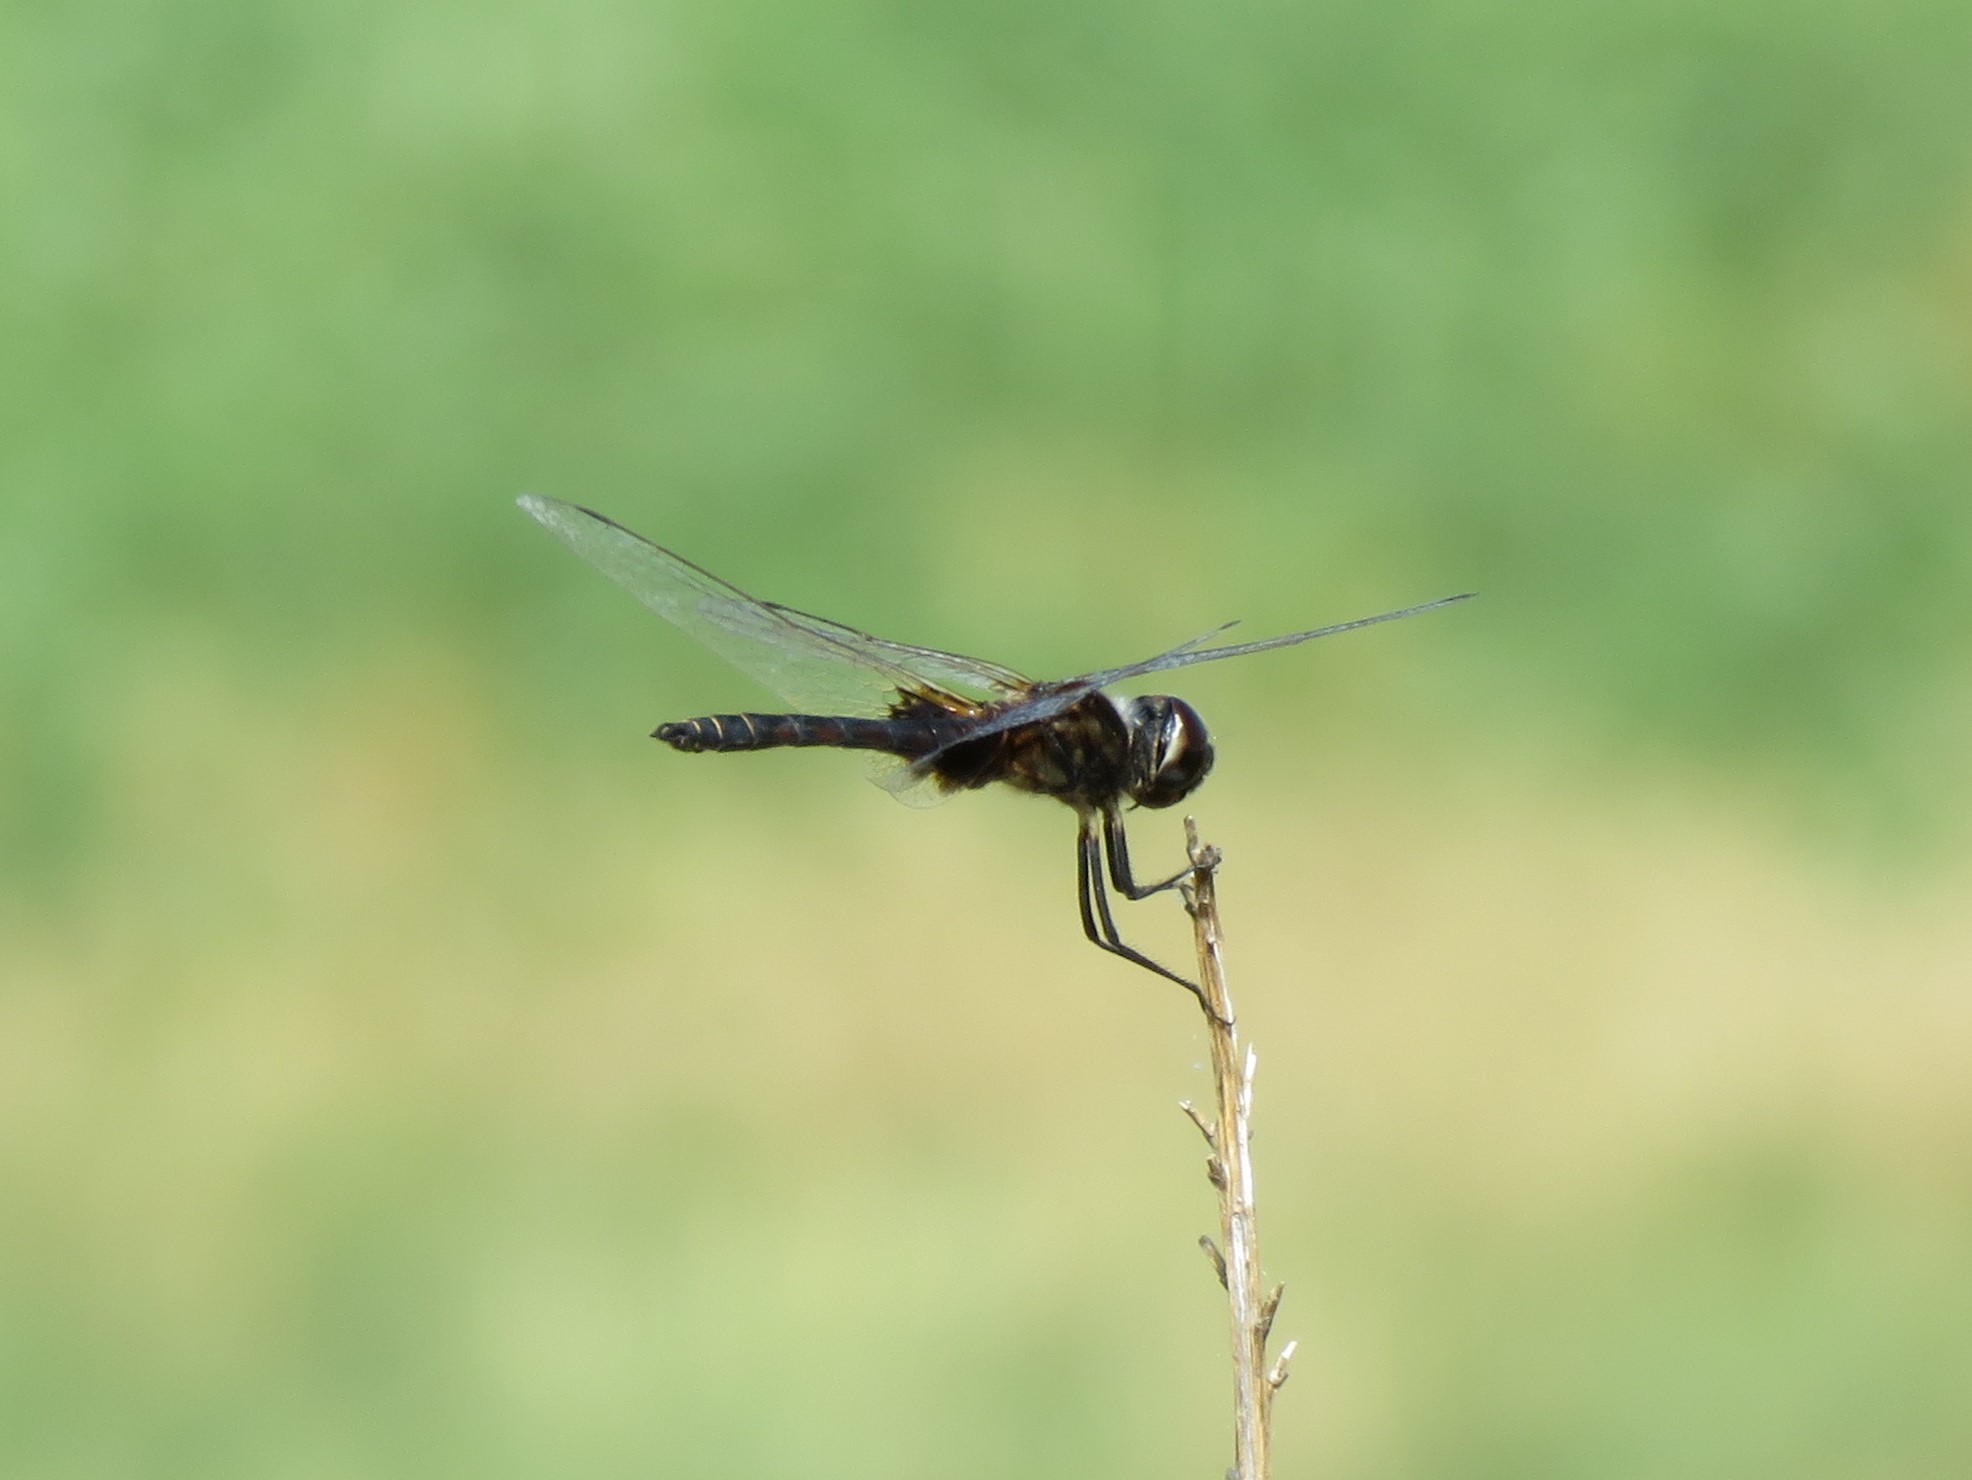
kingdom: Animalia
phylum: Arthropoda
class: Insecta
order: Odonata
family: Libellulidae
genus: Macrodiplax
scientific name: Macrodiplax balteata
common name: Marl pennant
